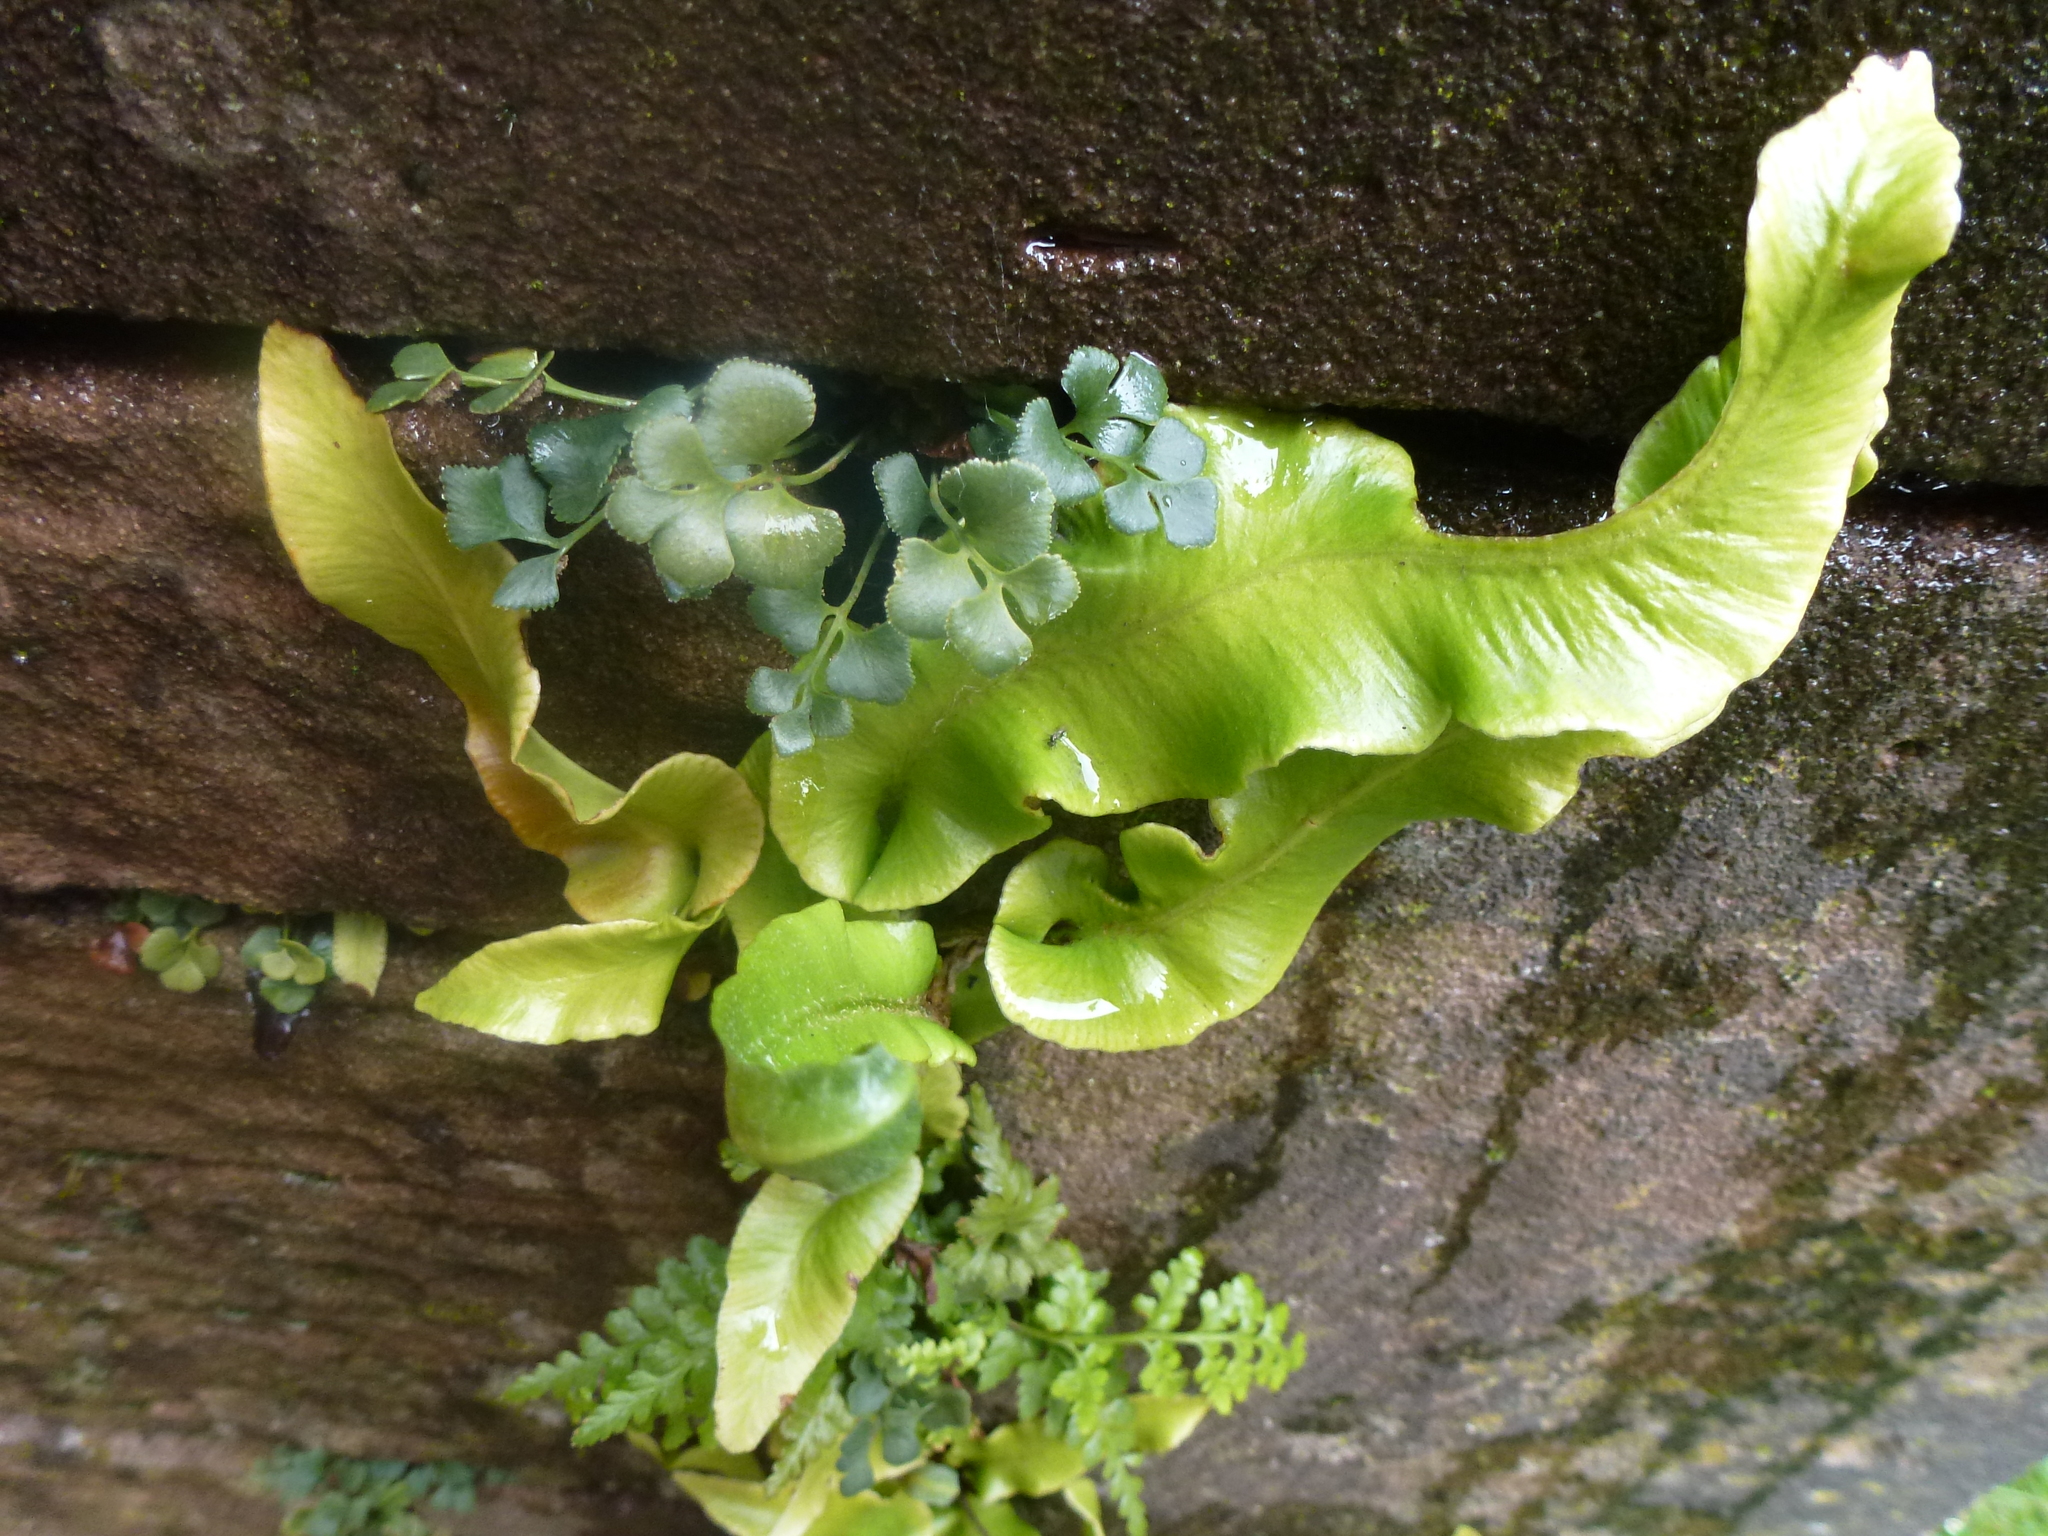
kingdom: Plantae
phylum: Tracheophyta
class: Polypodiopsida
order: Polypodiales
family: Aspleniaceae
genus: Asplenium
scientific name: Asplenium scolopendrium
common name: Hart's-tongue fern
